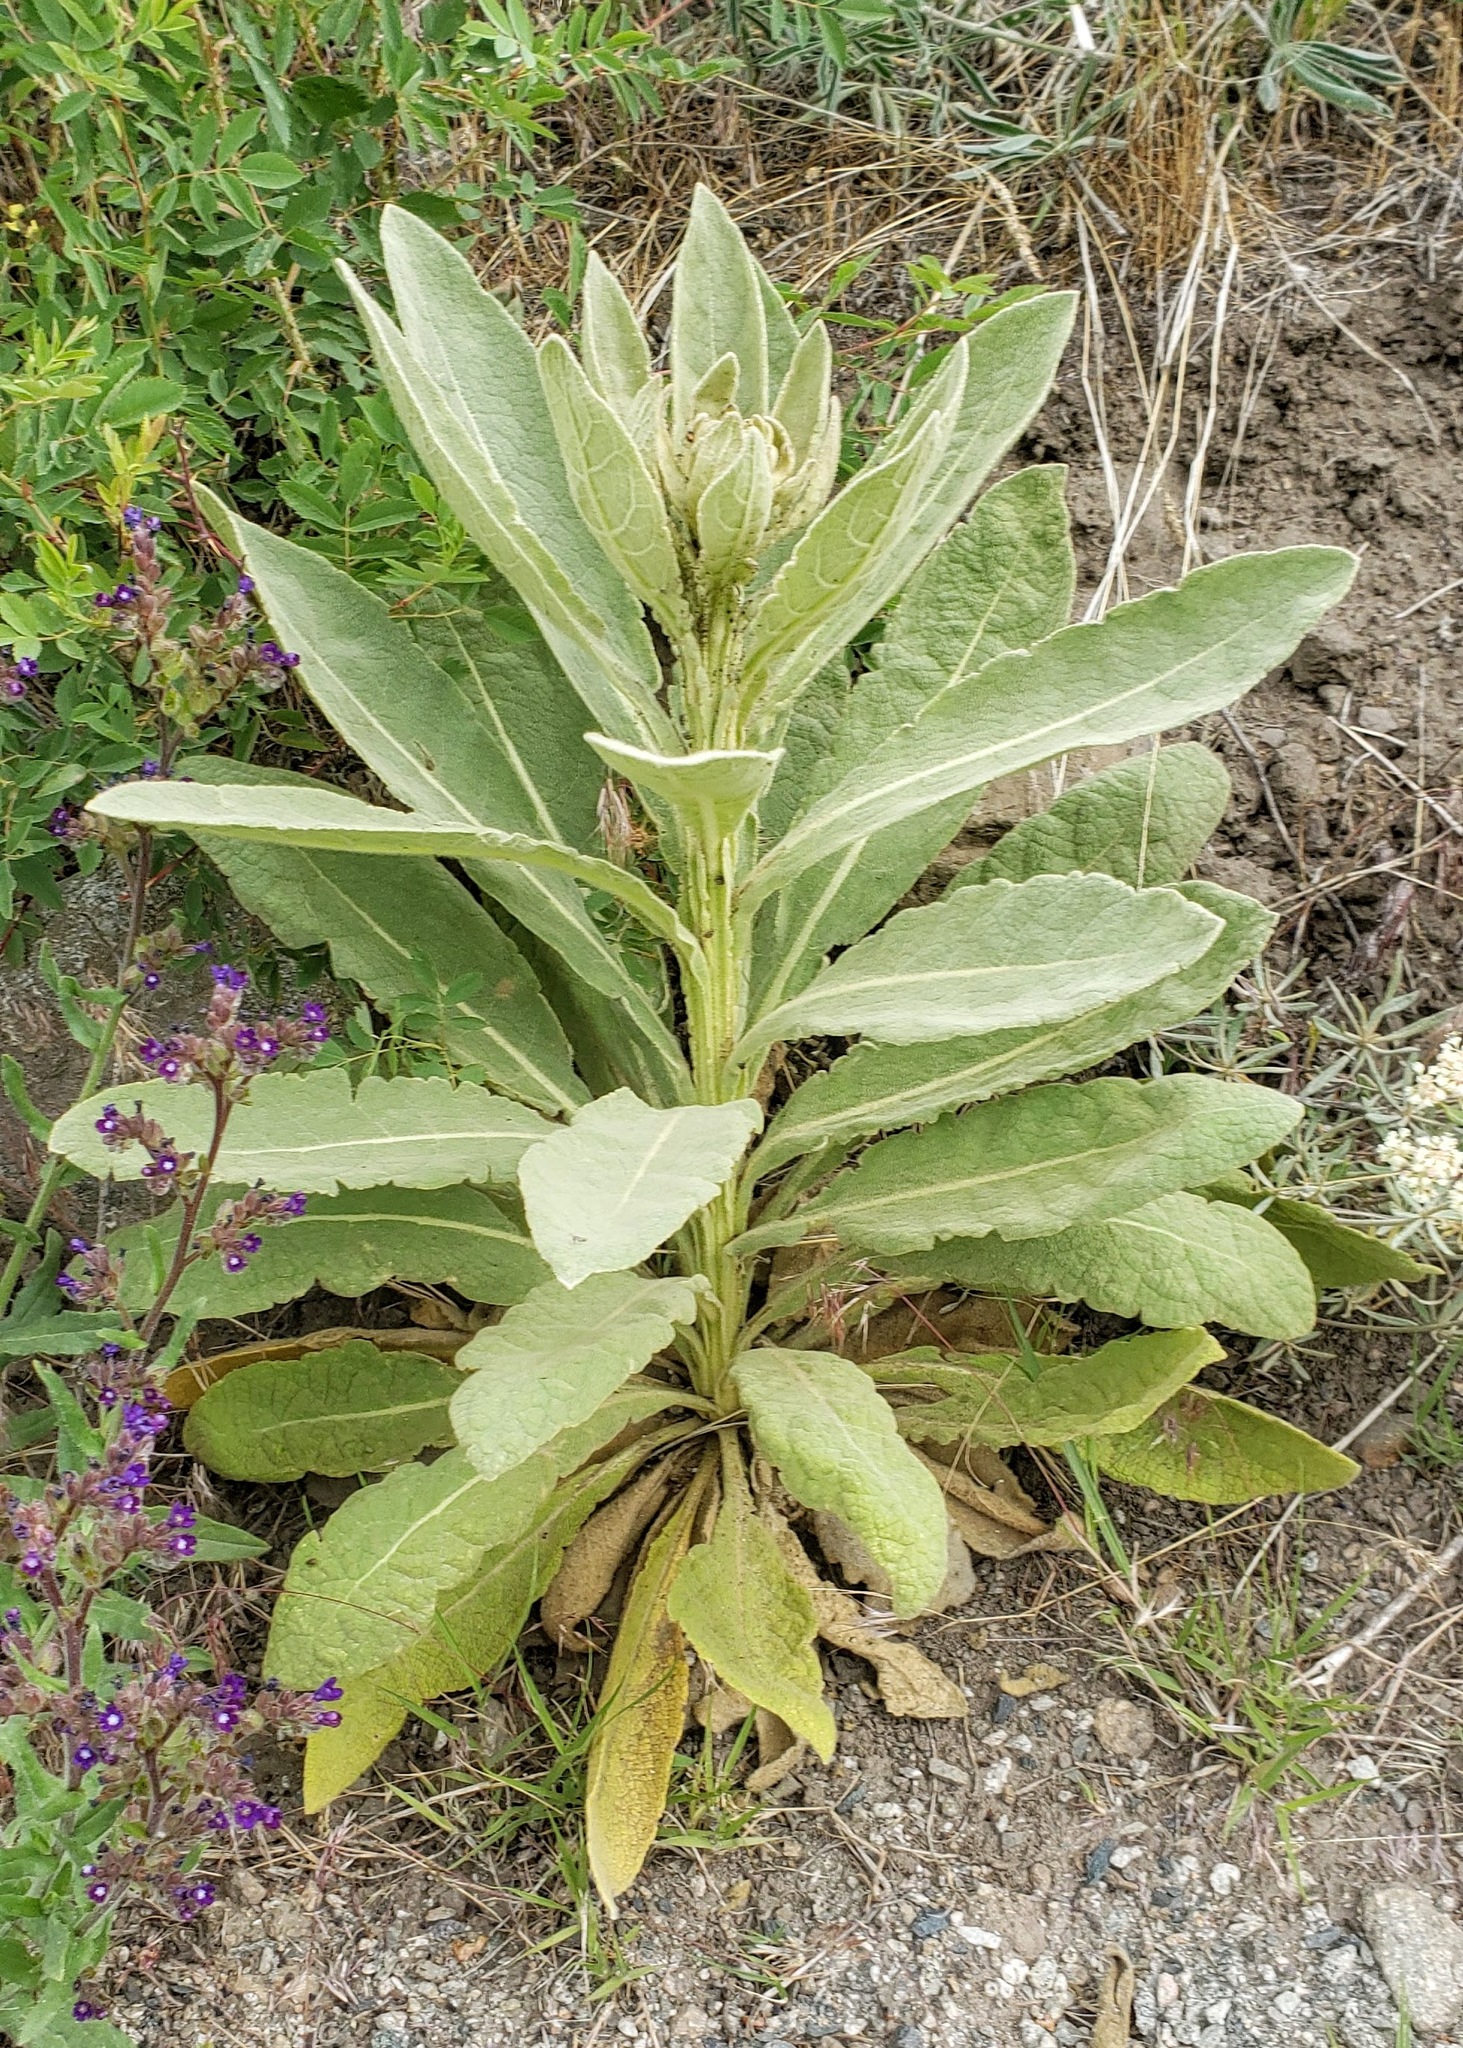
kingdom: Plantae
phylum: Tracheophyta
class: Magnoliopsida
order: Lamiales
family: Scrophulariaceae
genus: Verbascum
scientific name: Verbascum thapsus
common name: Common mullein
